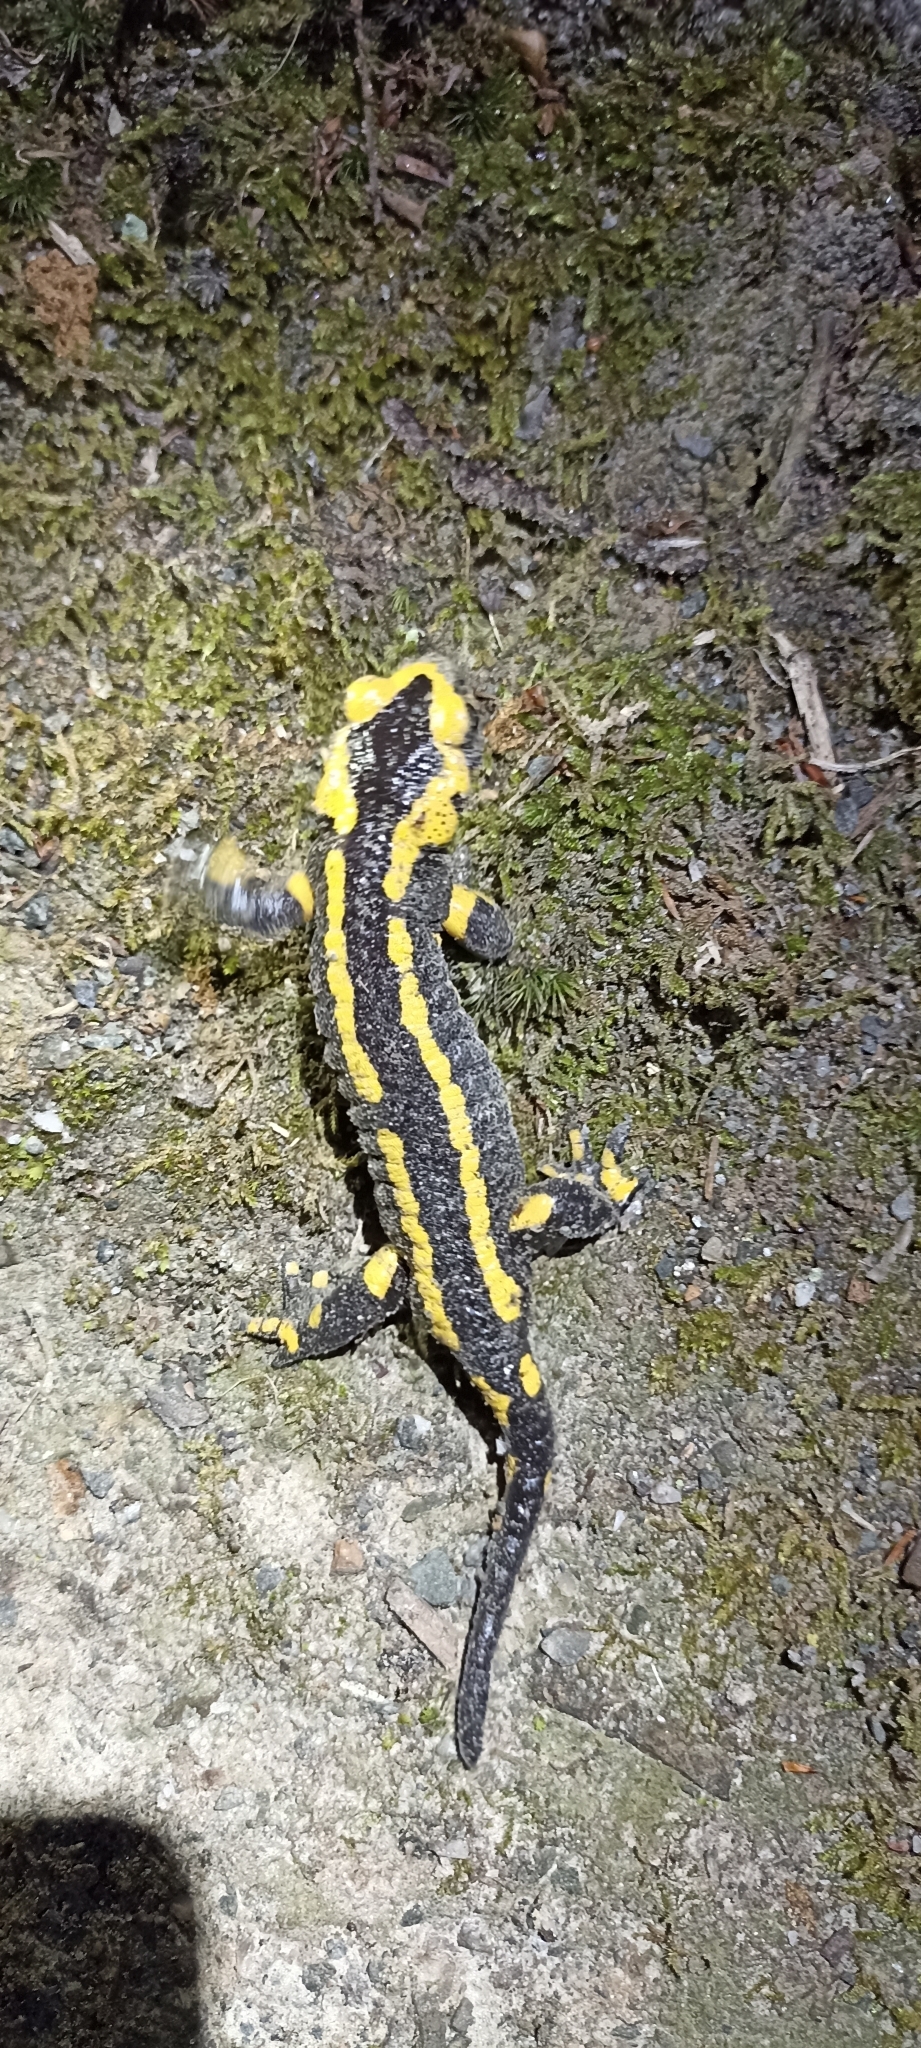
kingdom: Animalia
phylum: Chordata
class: Amphibia
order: Caudata
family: Salamandridae
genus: Salamandra
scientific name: Salamandra salamandra
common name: Fire salamander
